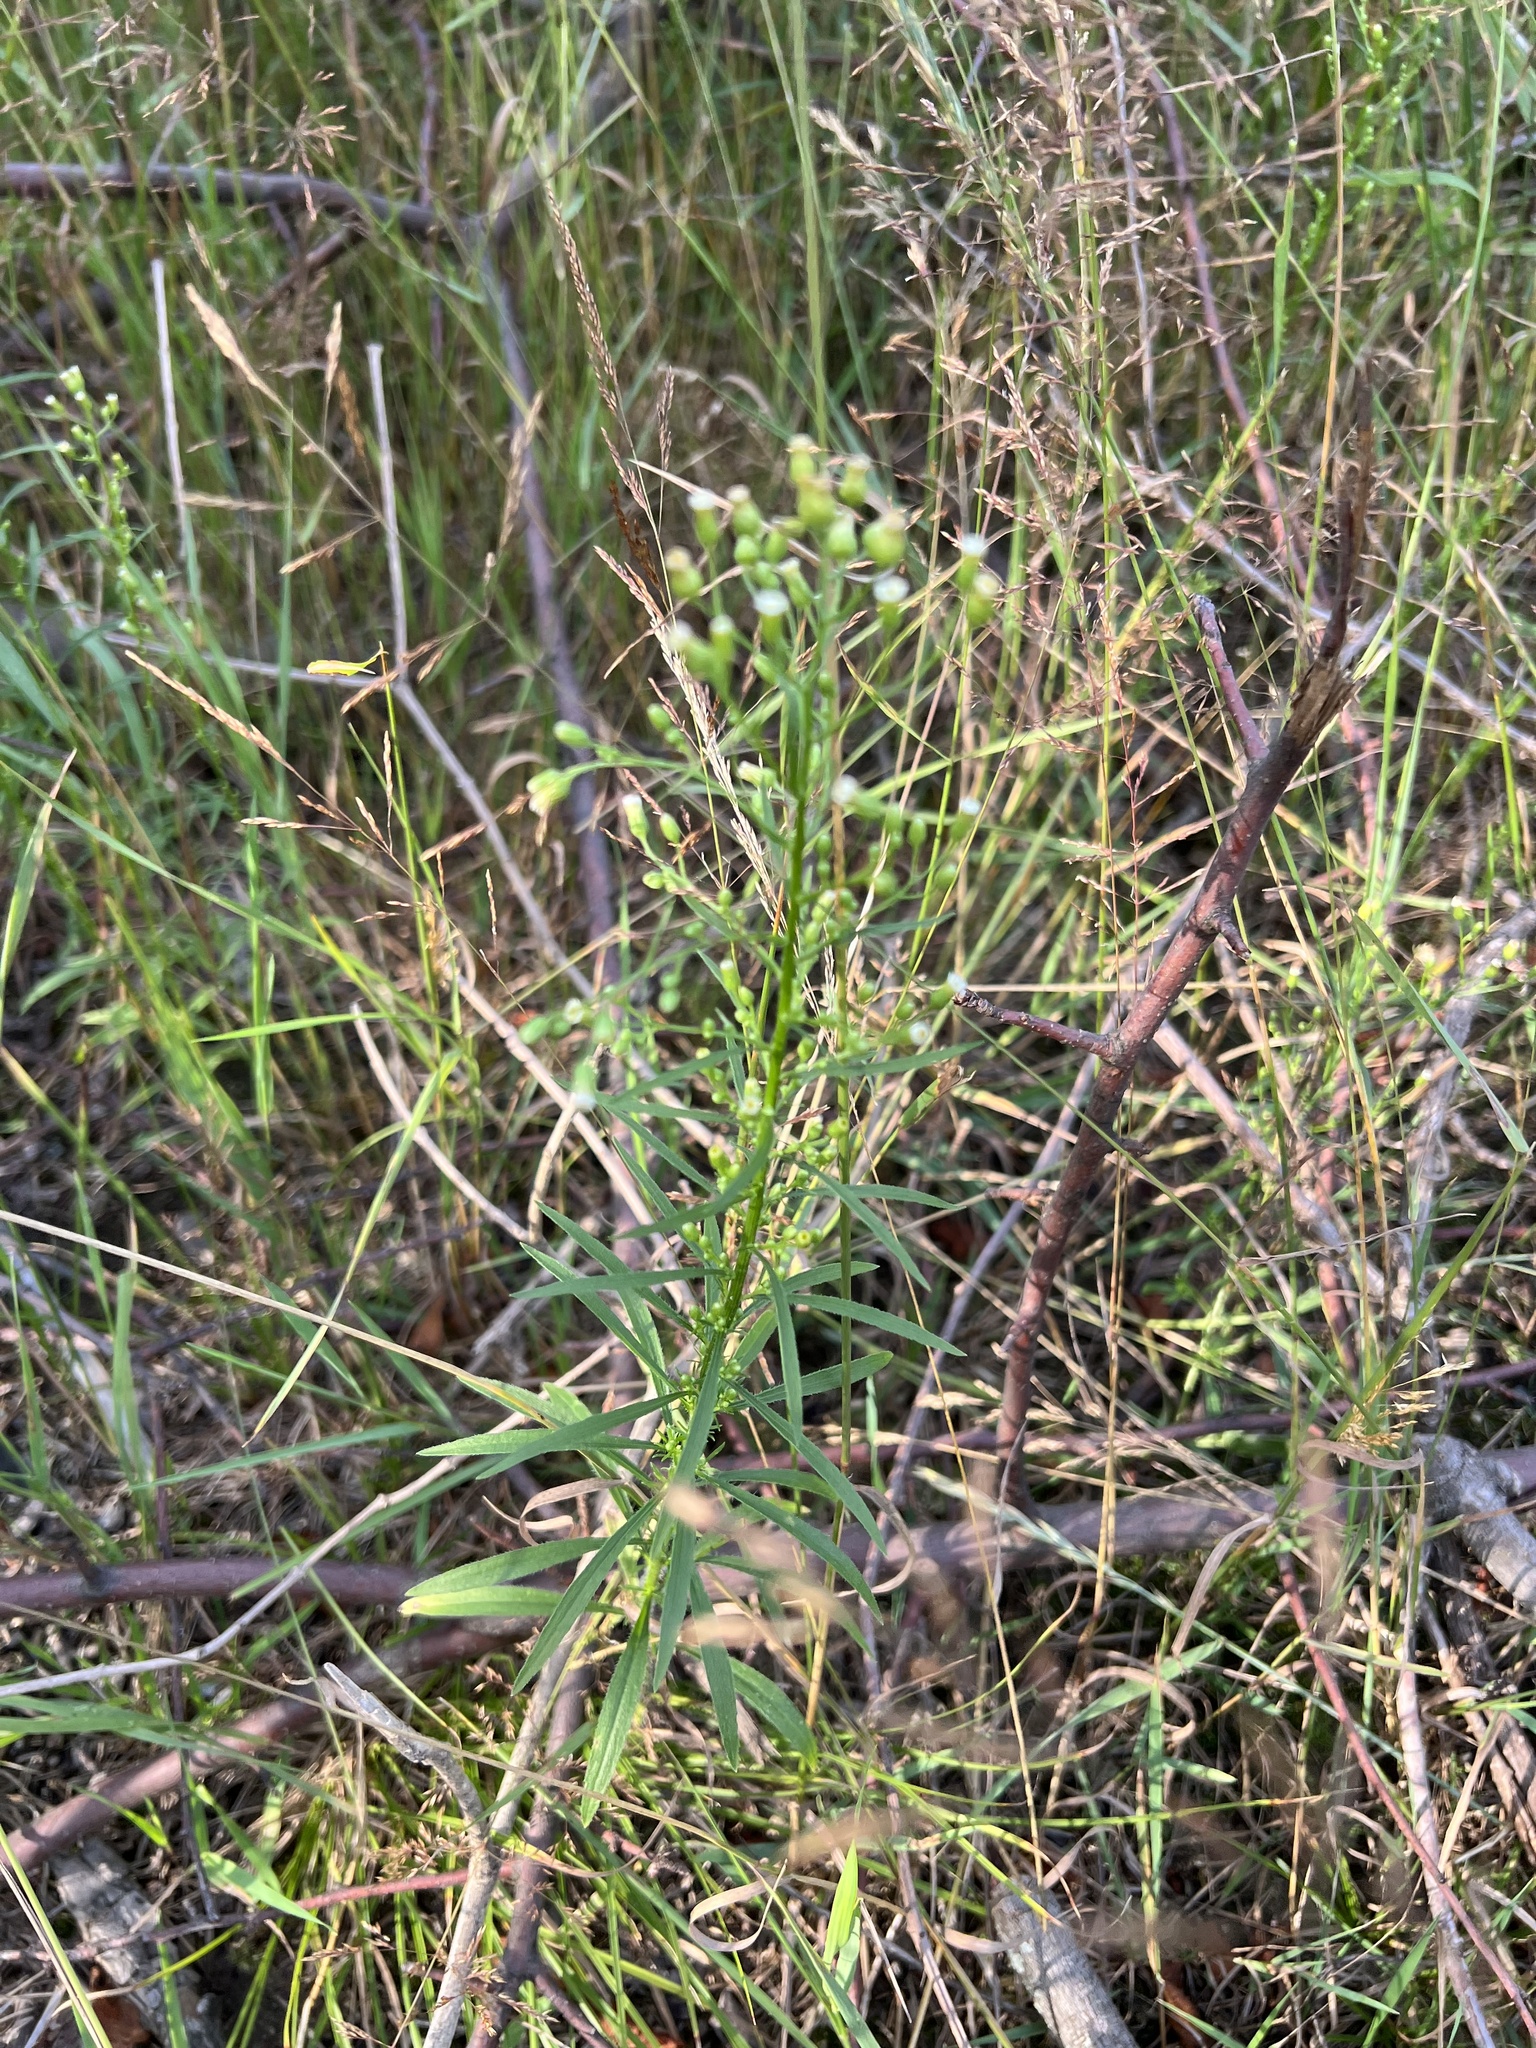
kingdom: Plantae
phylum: Tracheophyta
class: Magnoliopsida
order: Asterales
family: Asteraceae
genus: Erigeron
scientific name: Erigeron canadensis
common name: Canadian fleabane
